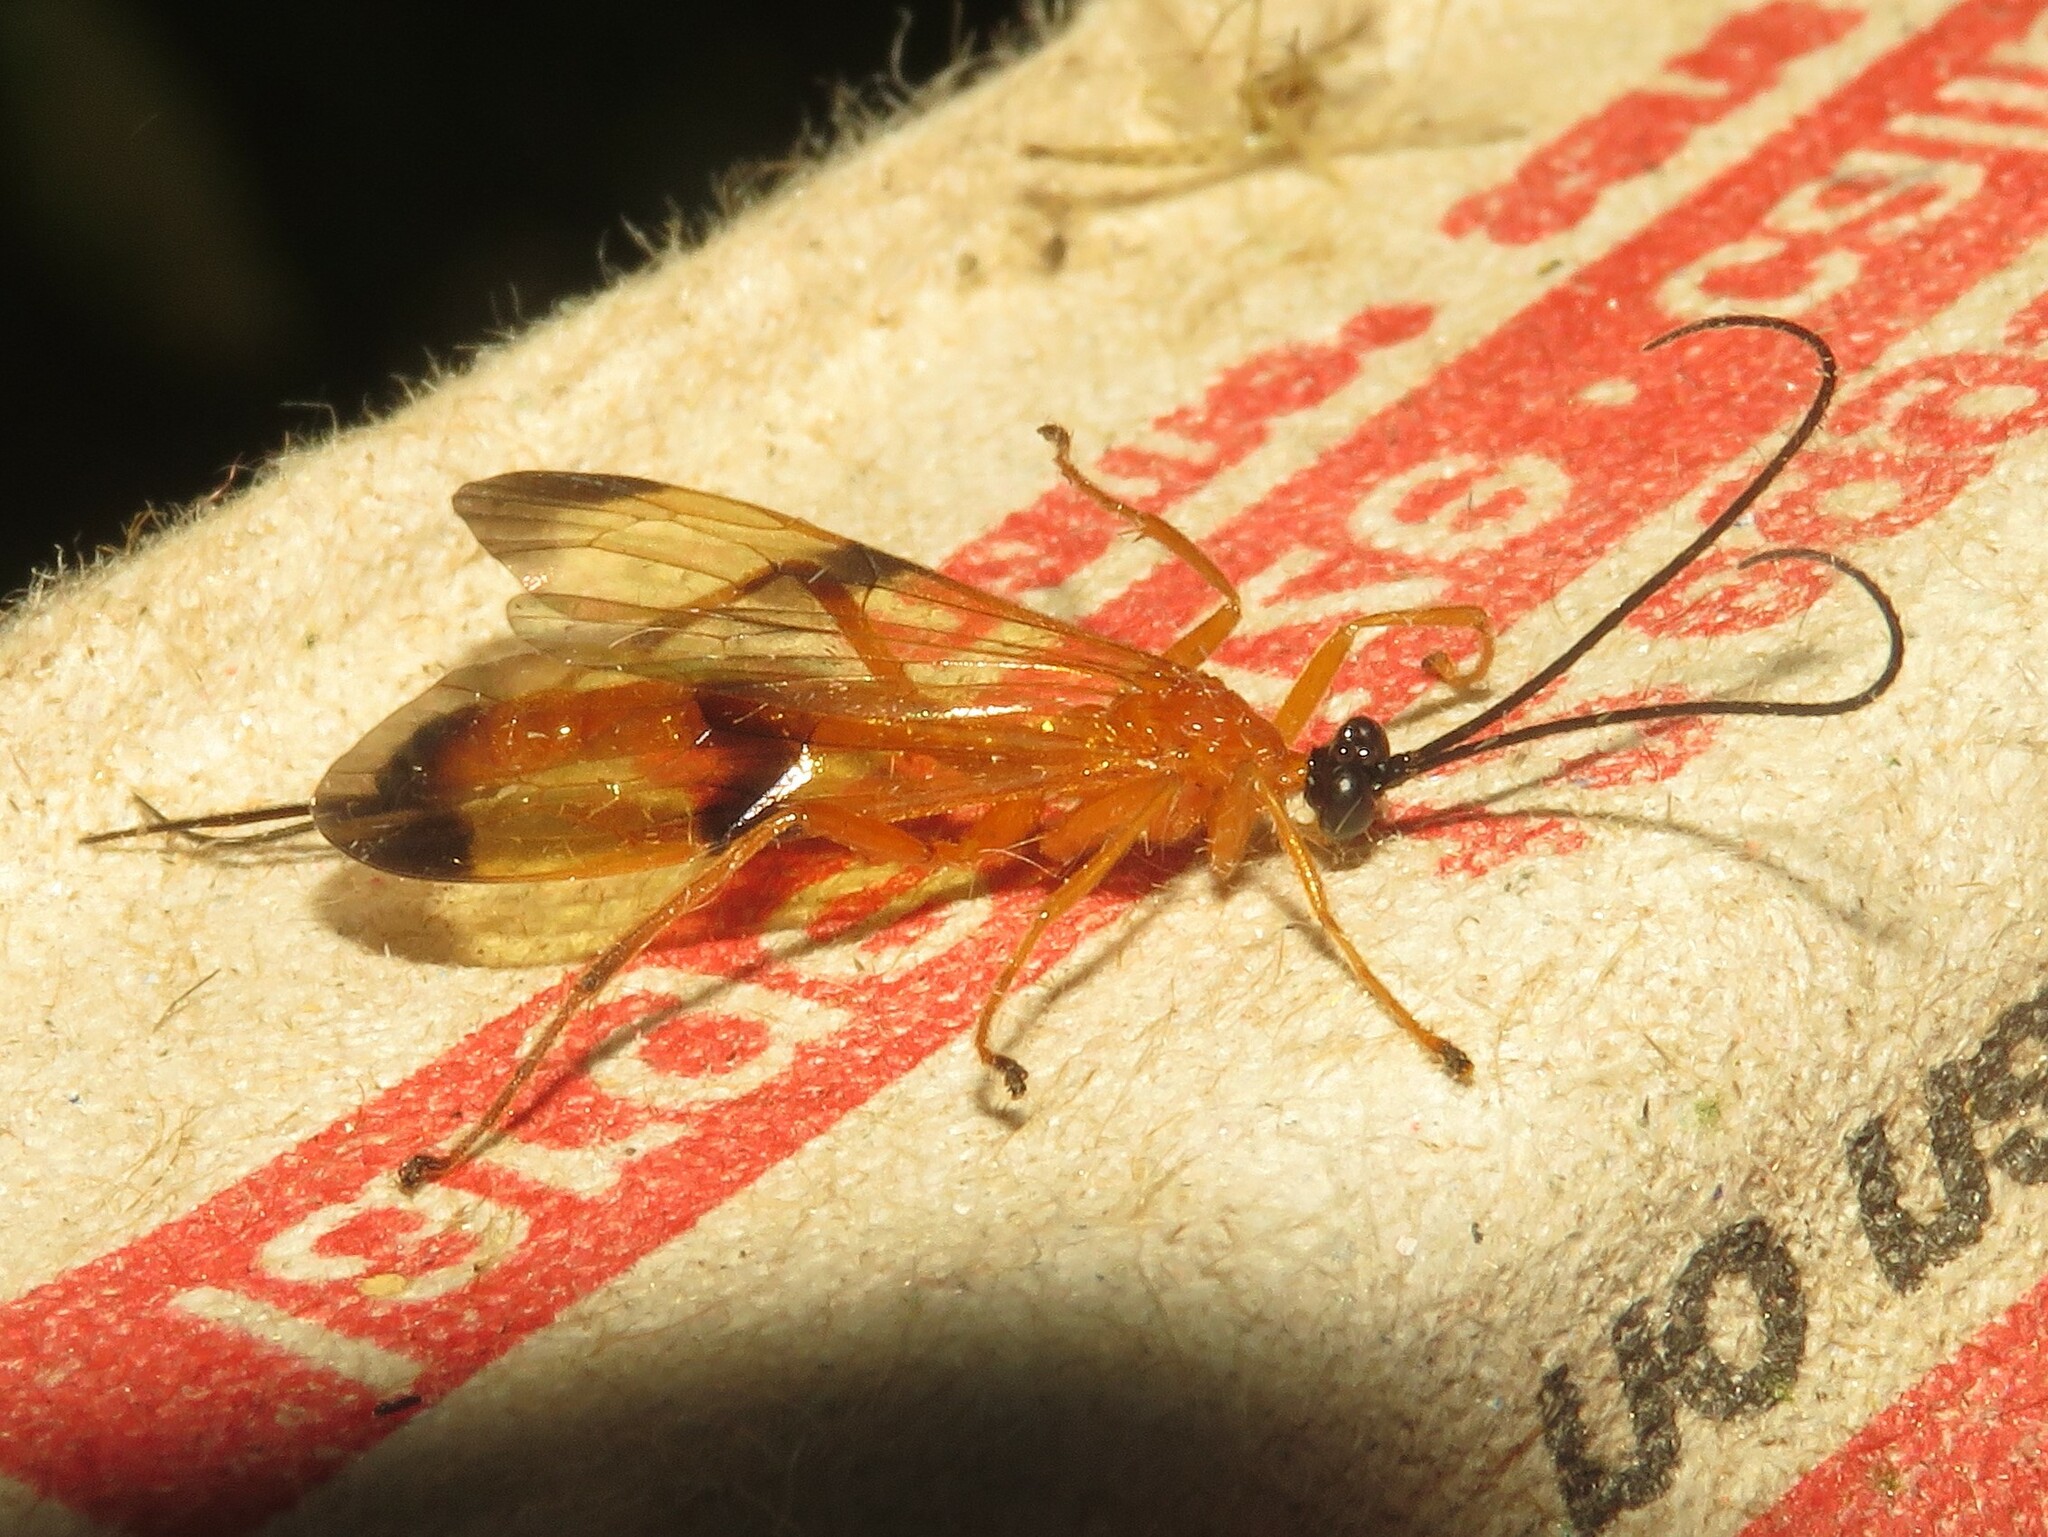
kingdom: Animalia
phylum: Arthropoda
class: Insecta
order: Hymenoptera
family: Ichneumonidae
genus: Acrotaphus
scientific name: Acrotaphus wiltii
